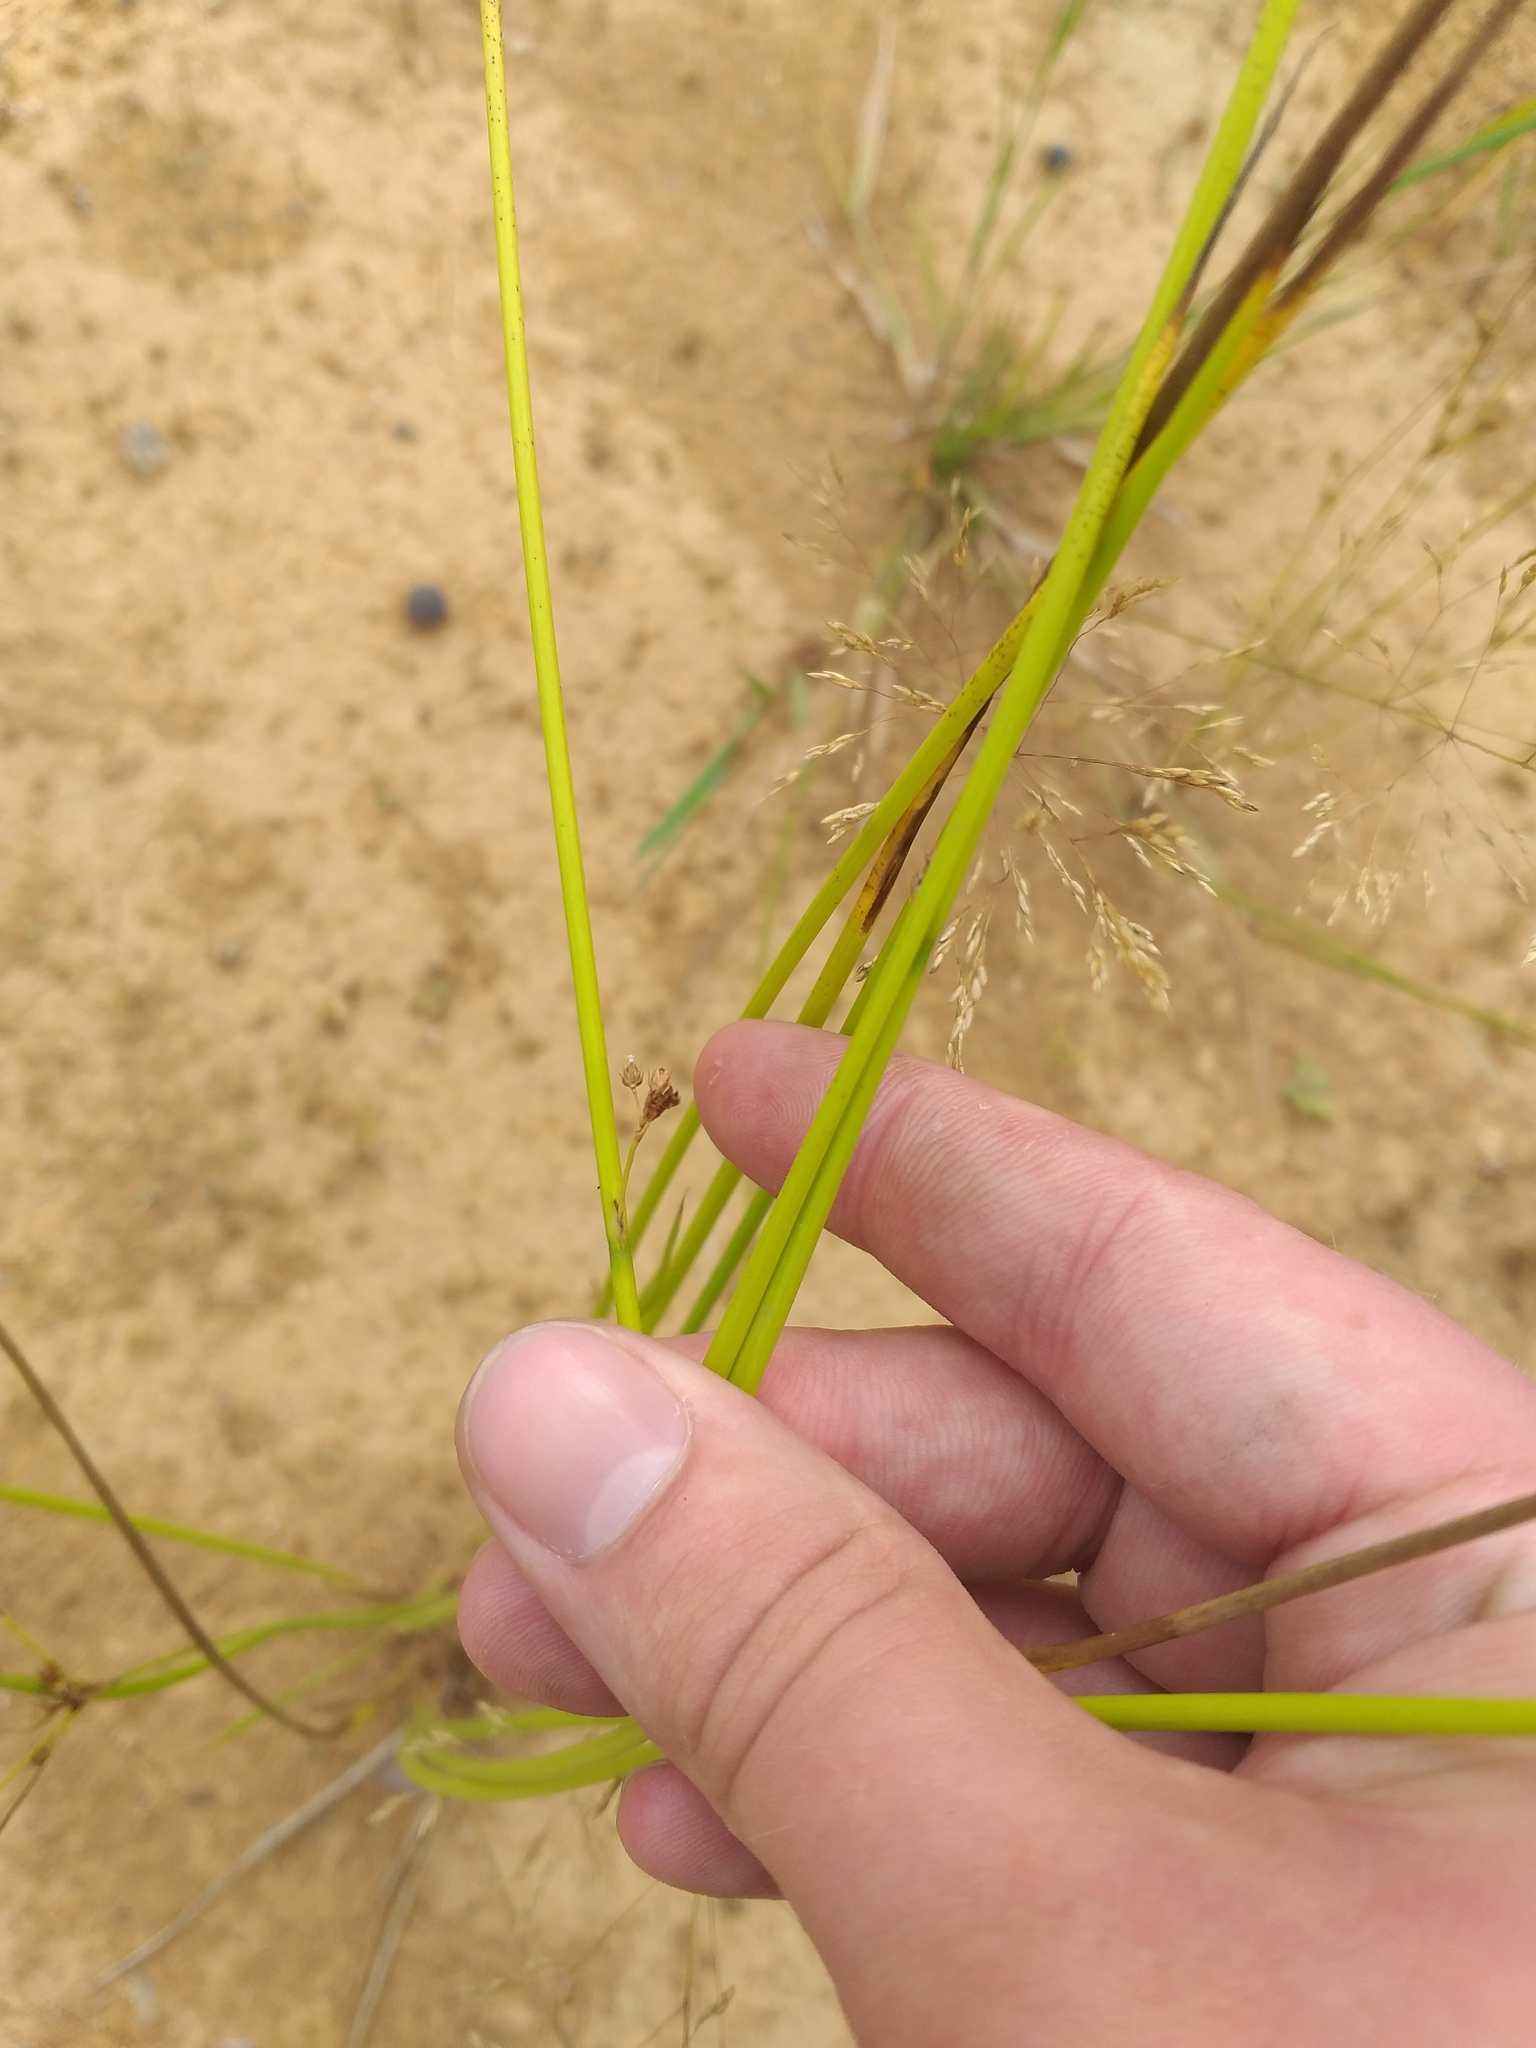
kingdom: Plantae
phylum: Tracheophyta
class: Liliopsida
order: Poales
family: Juncaceae
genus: Juncus
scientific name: Juncus effusus
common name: Soft rush
